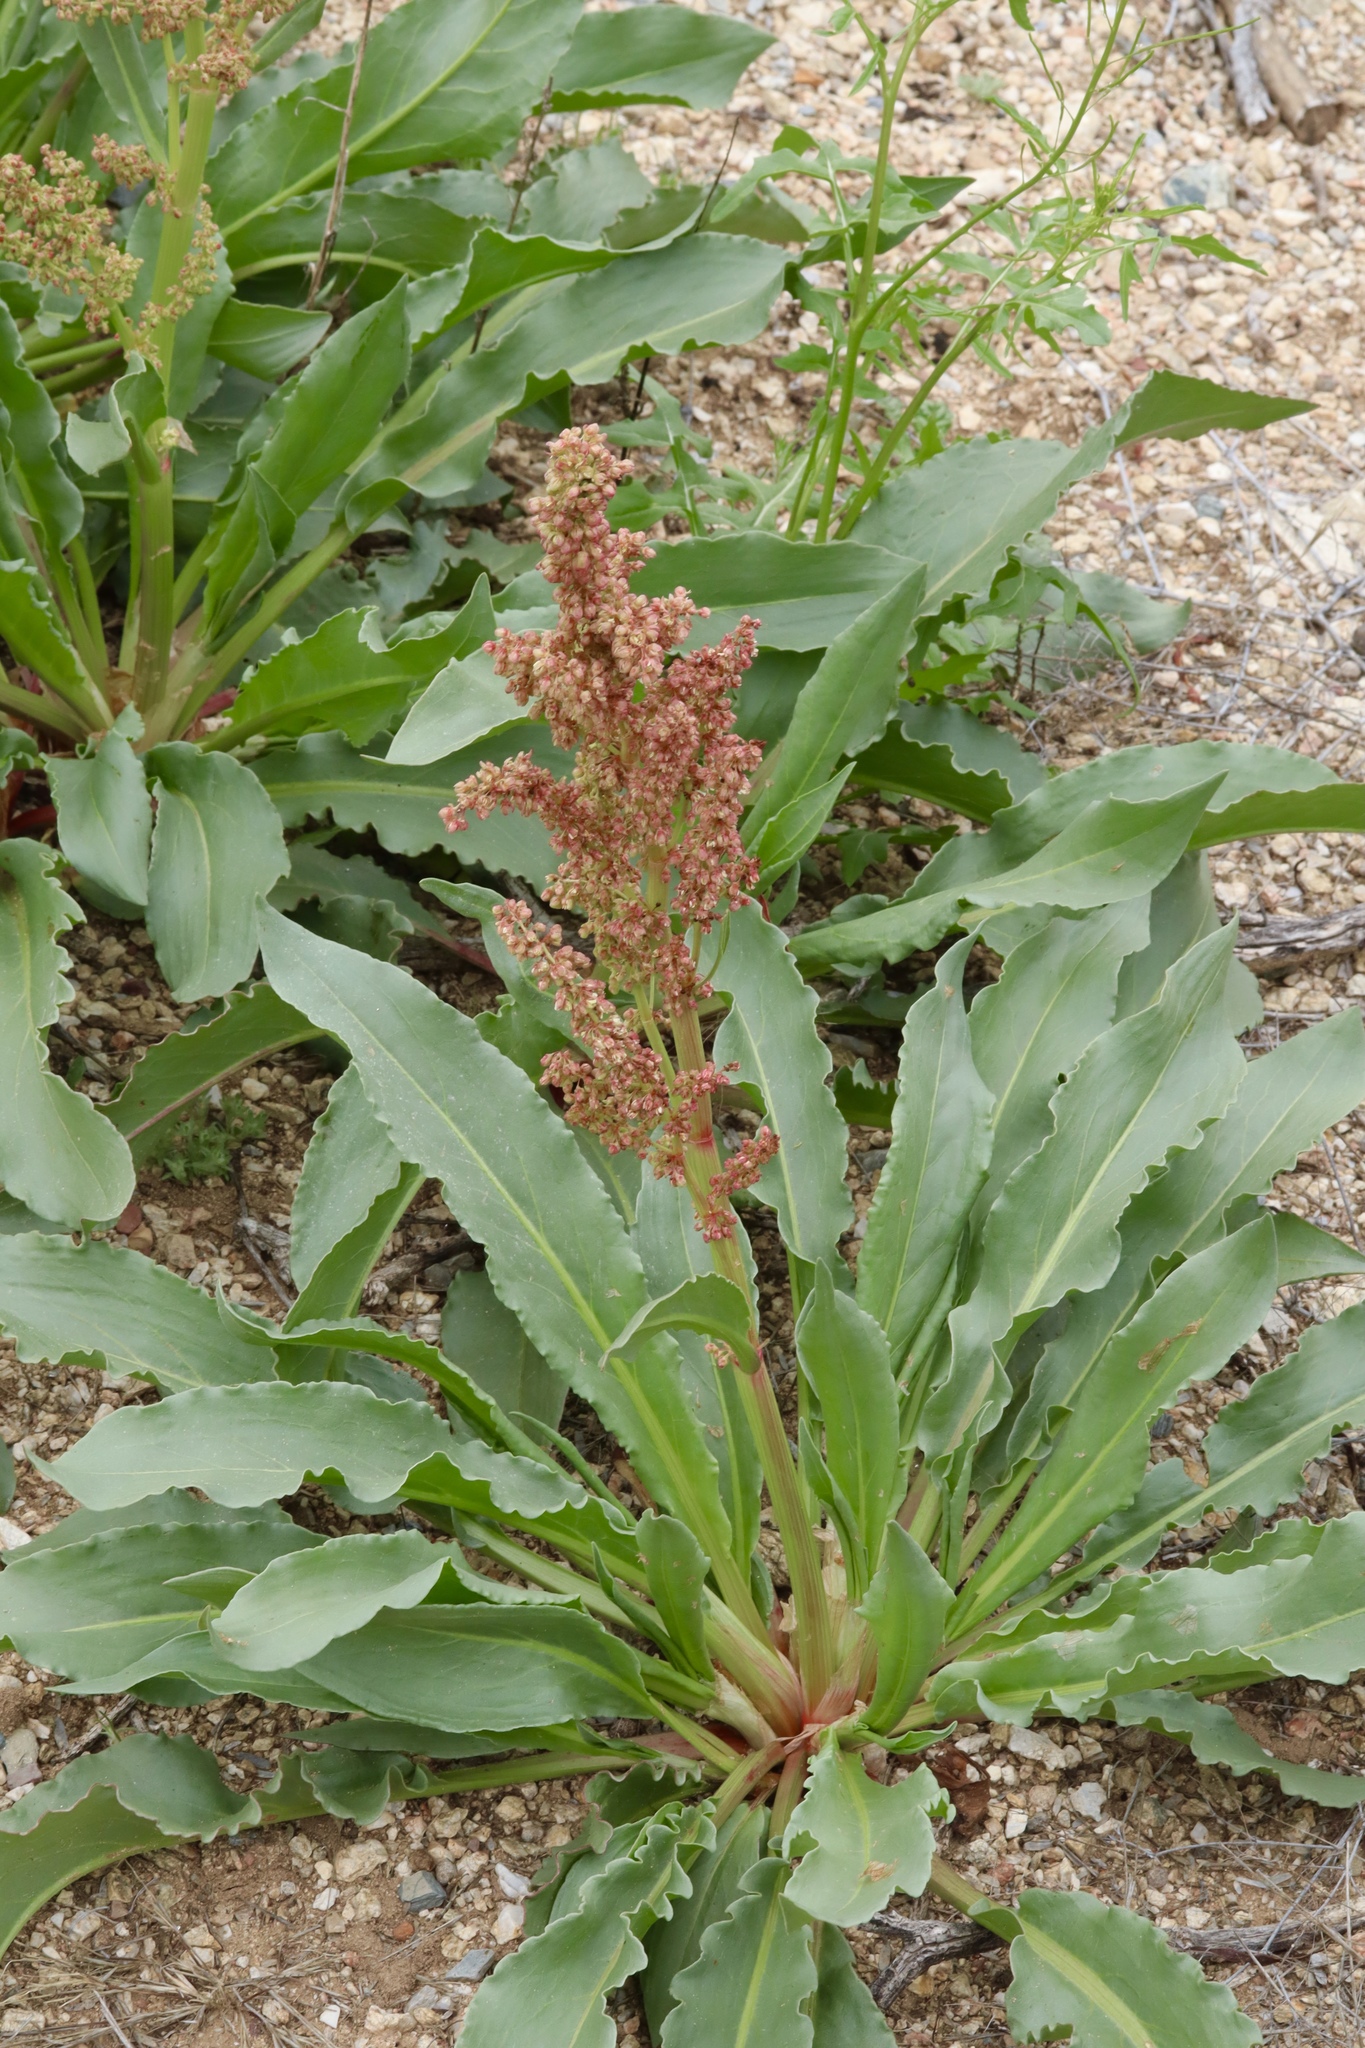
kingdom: Plantae
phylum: Tracheophyta
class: Magnoliopsida
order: Caryophyllales
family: Polygonaceae
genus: Rumex
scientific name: Rumex hymenosepalus
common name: Ganagra
